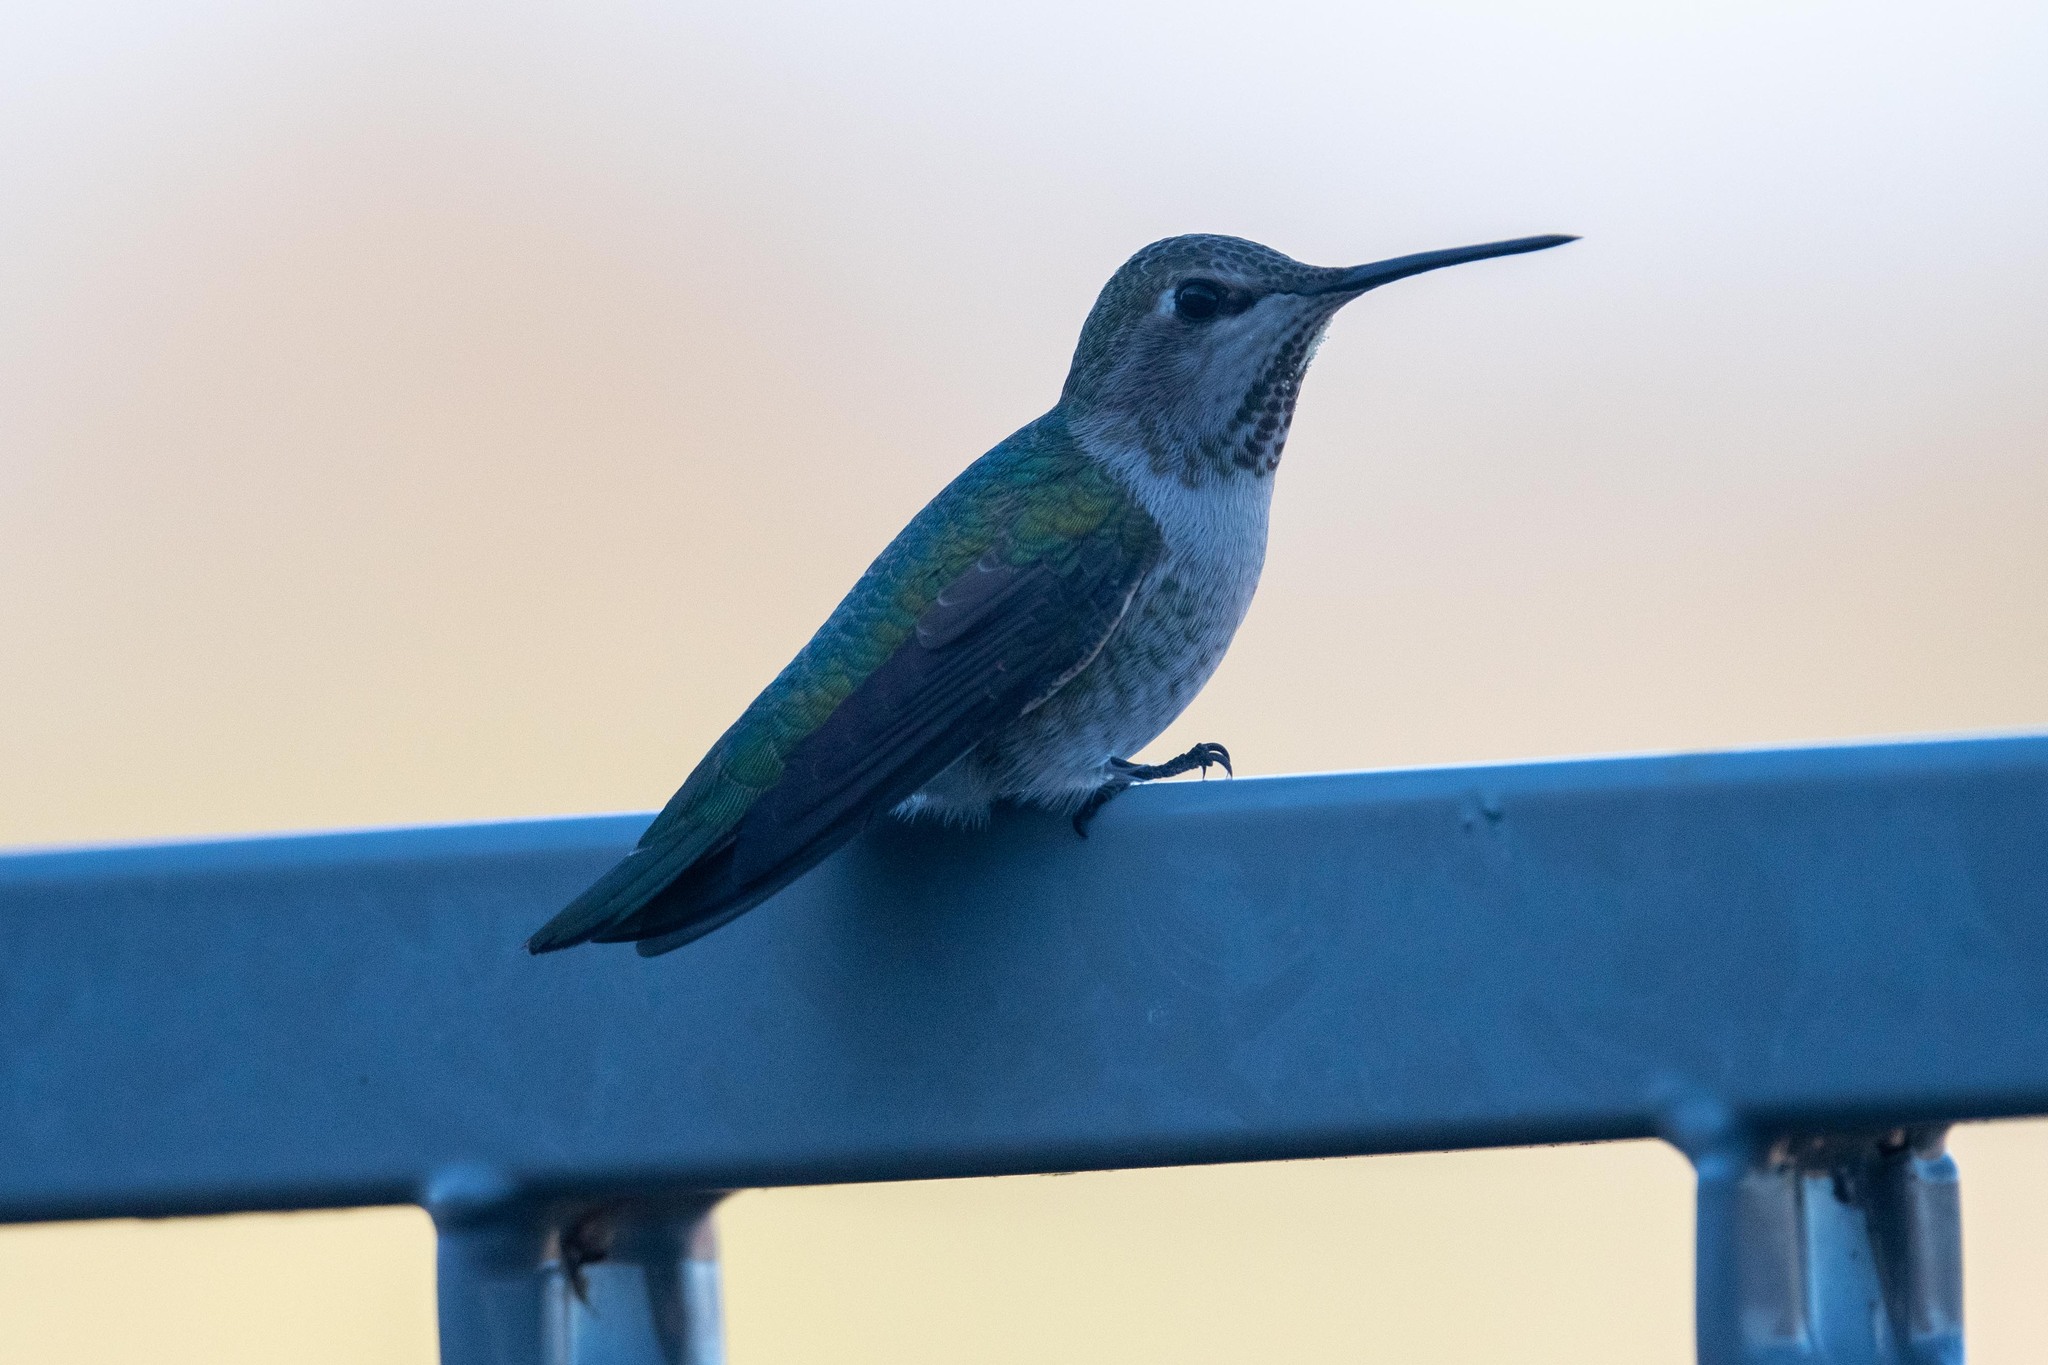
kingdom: Animalia
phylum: Chordata
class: Aves
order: Apodiformes
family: Trochilidae
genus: Calypte
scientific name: Calypte anna
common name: Anna's hummingbird
